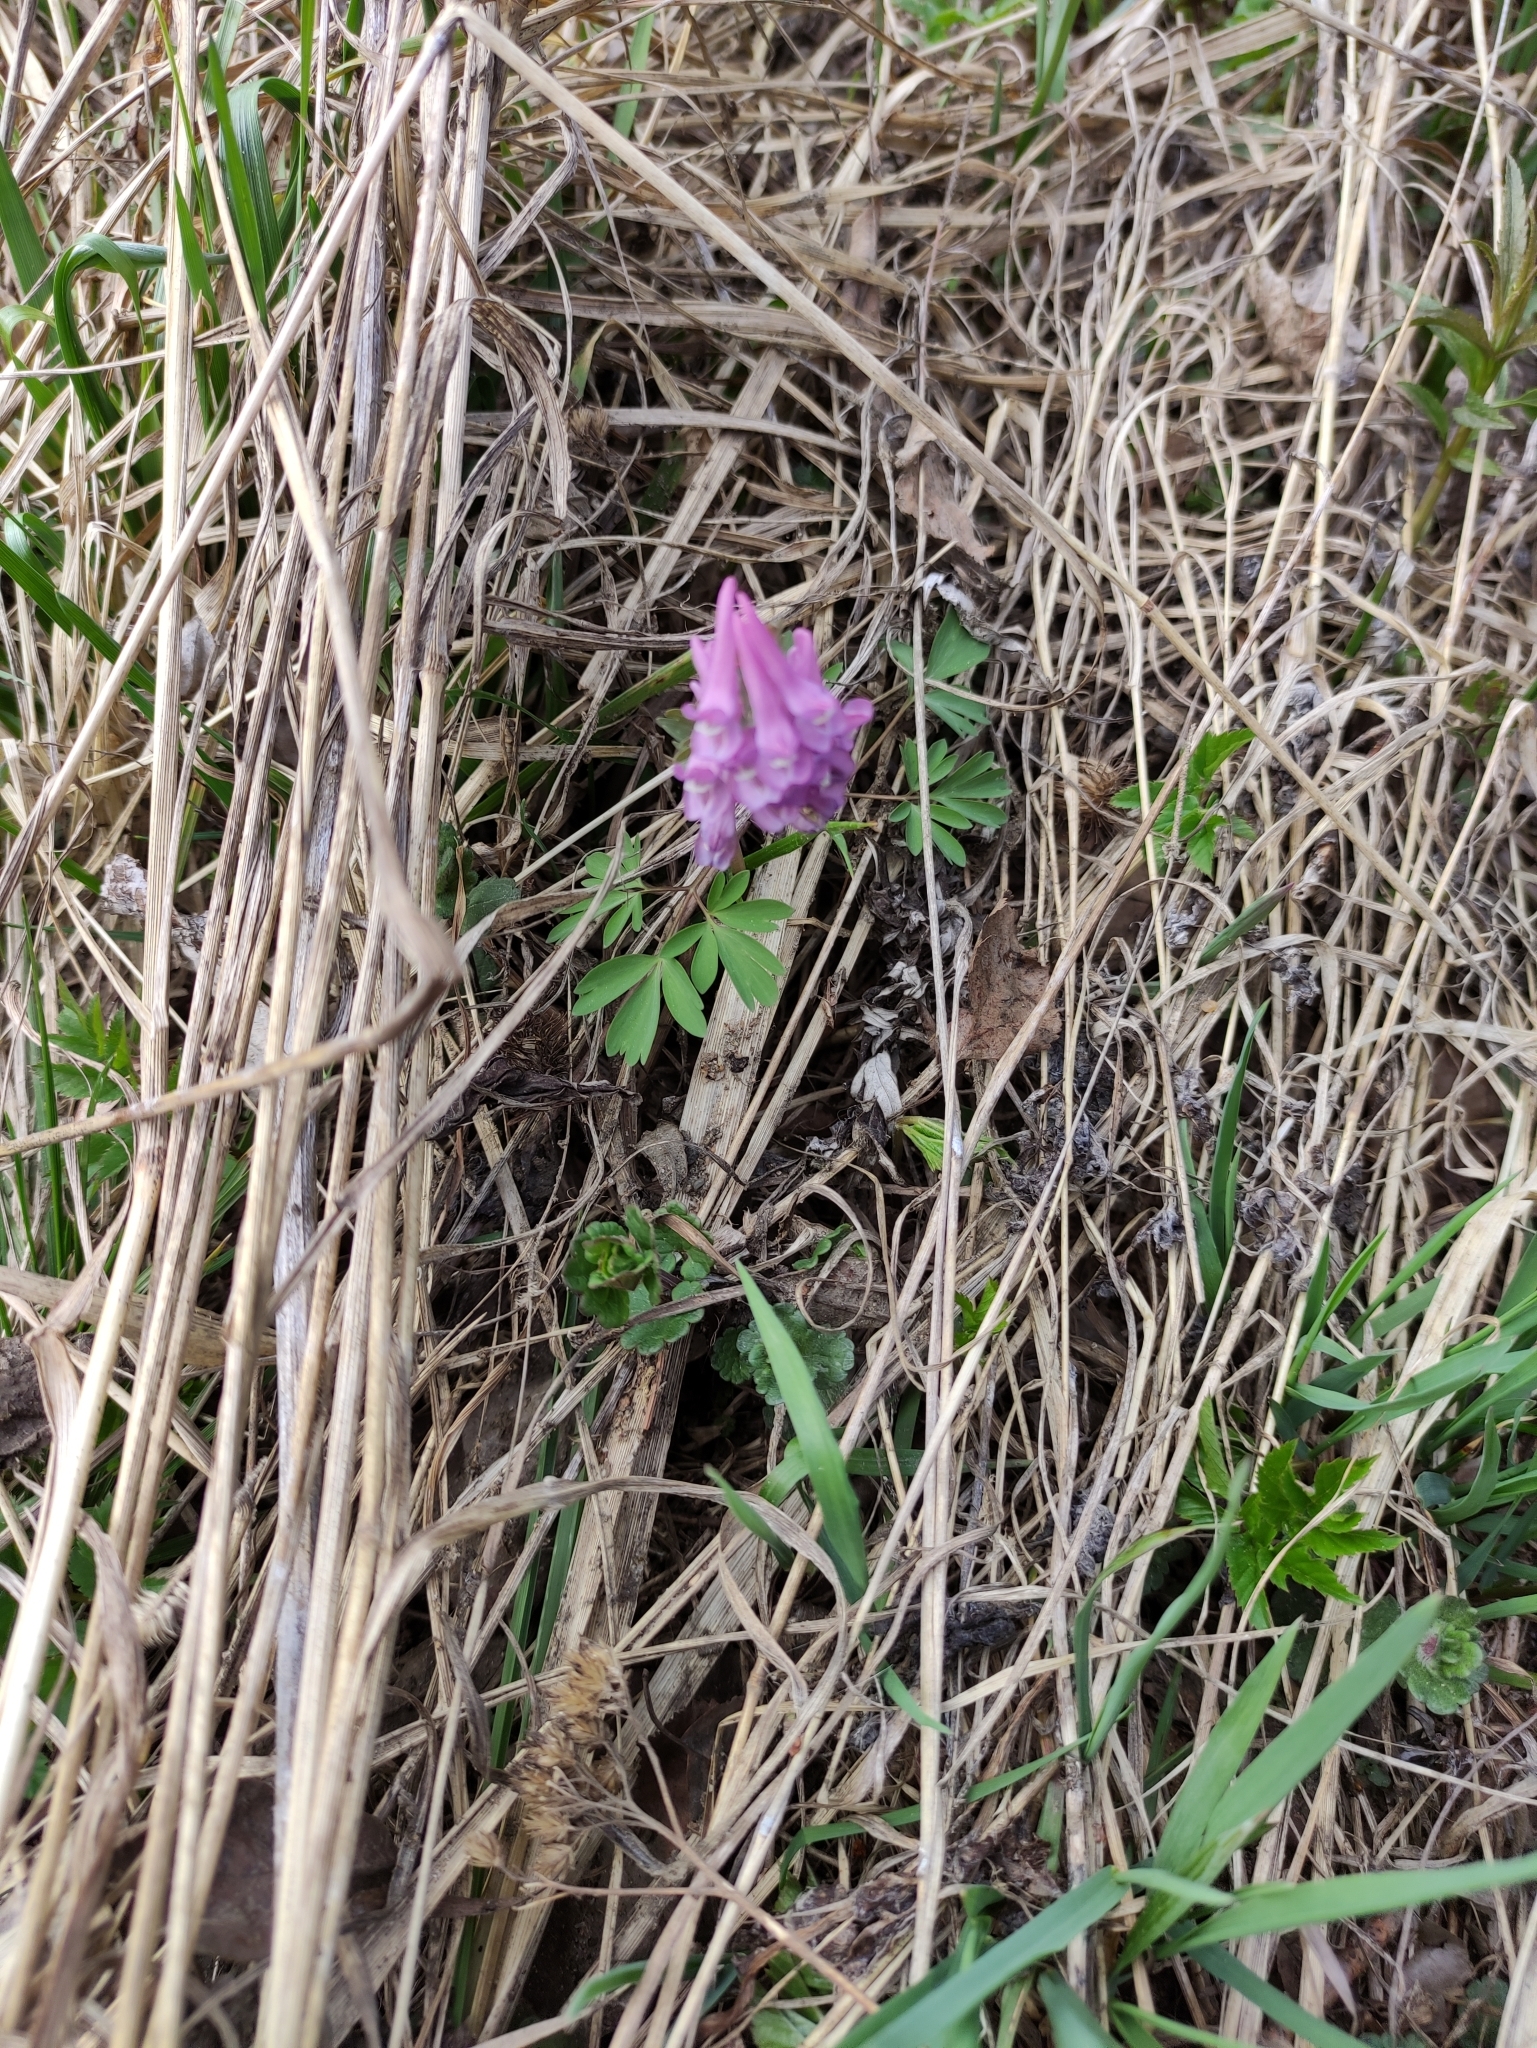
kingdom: Plantae
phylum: Tracheophyta
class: Magnoliopsida
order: Ranunculales
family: Papaveraceae
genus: Corydalis
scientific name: Corydalis solida
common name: Bird-in-a-bush
